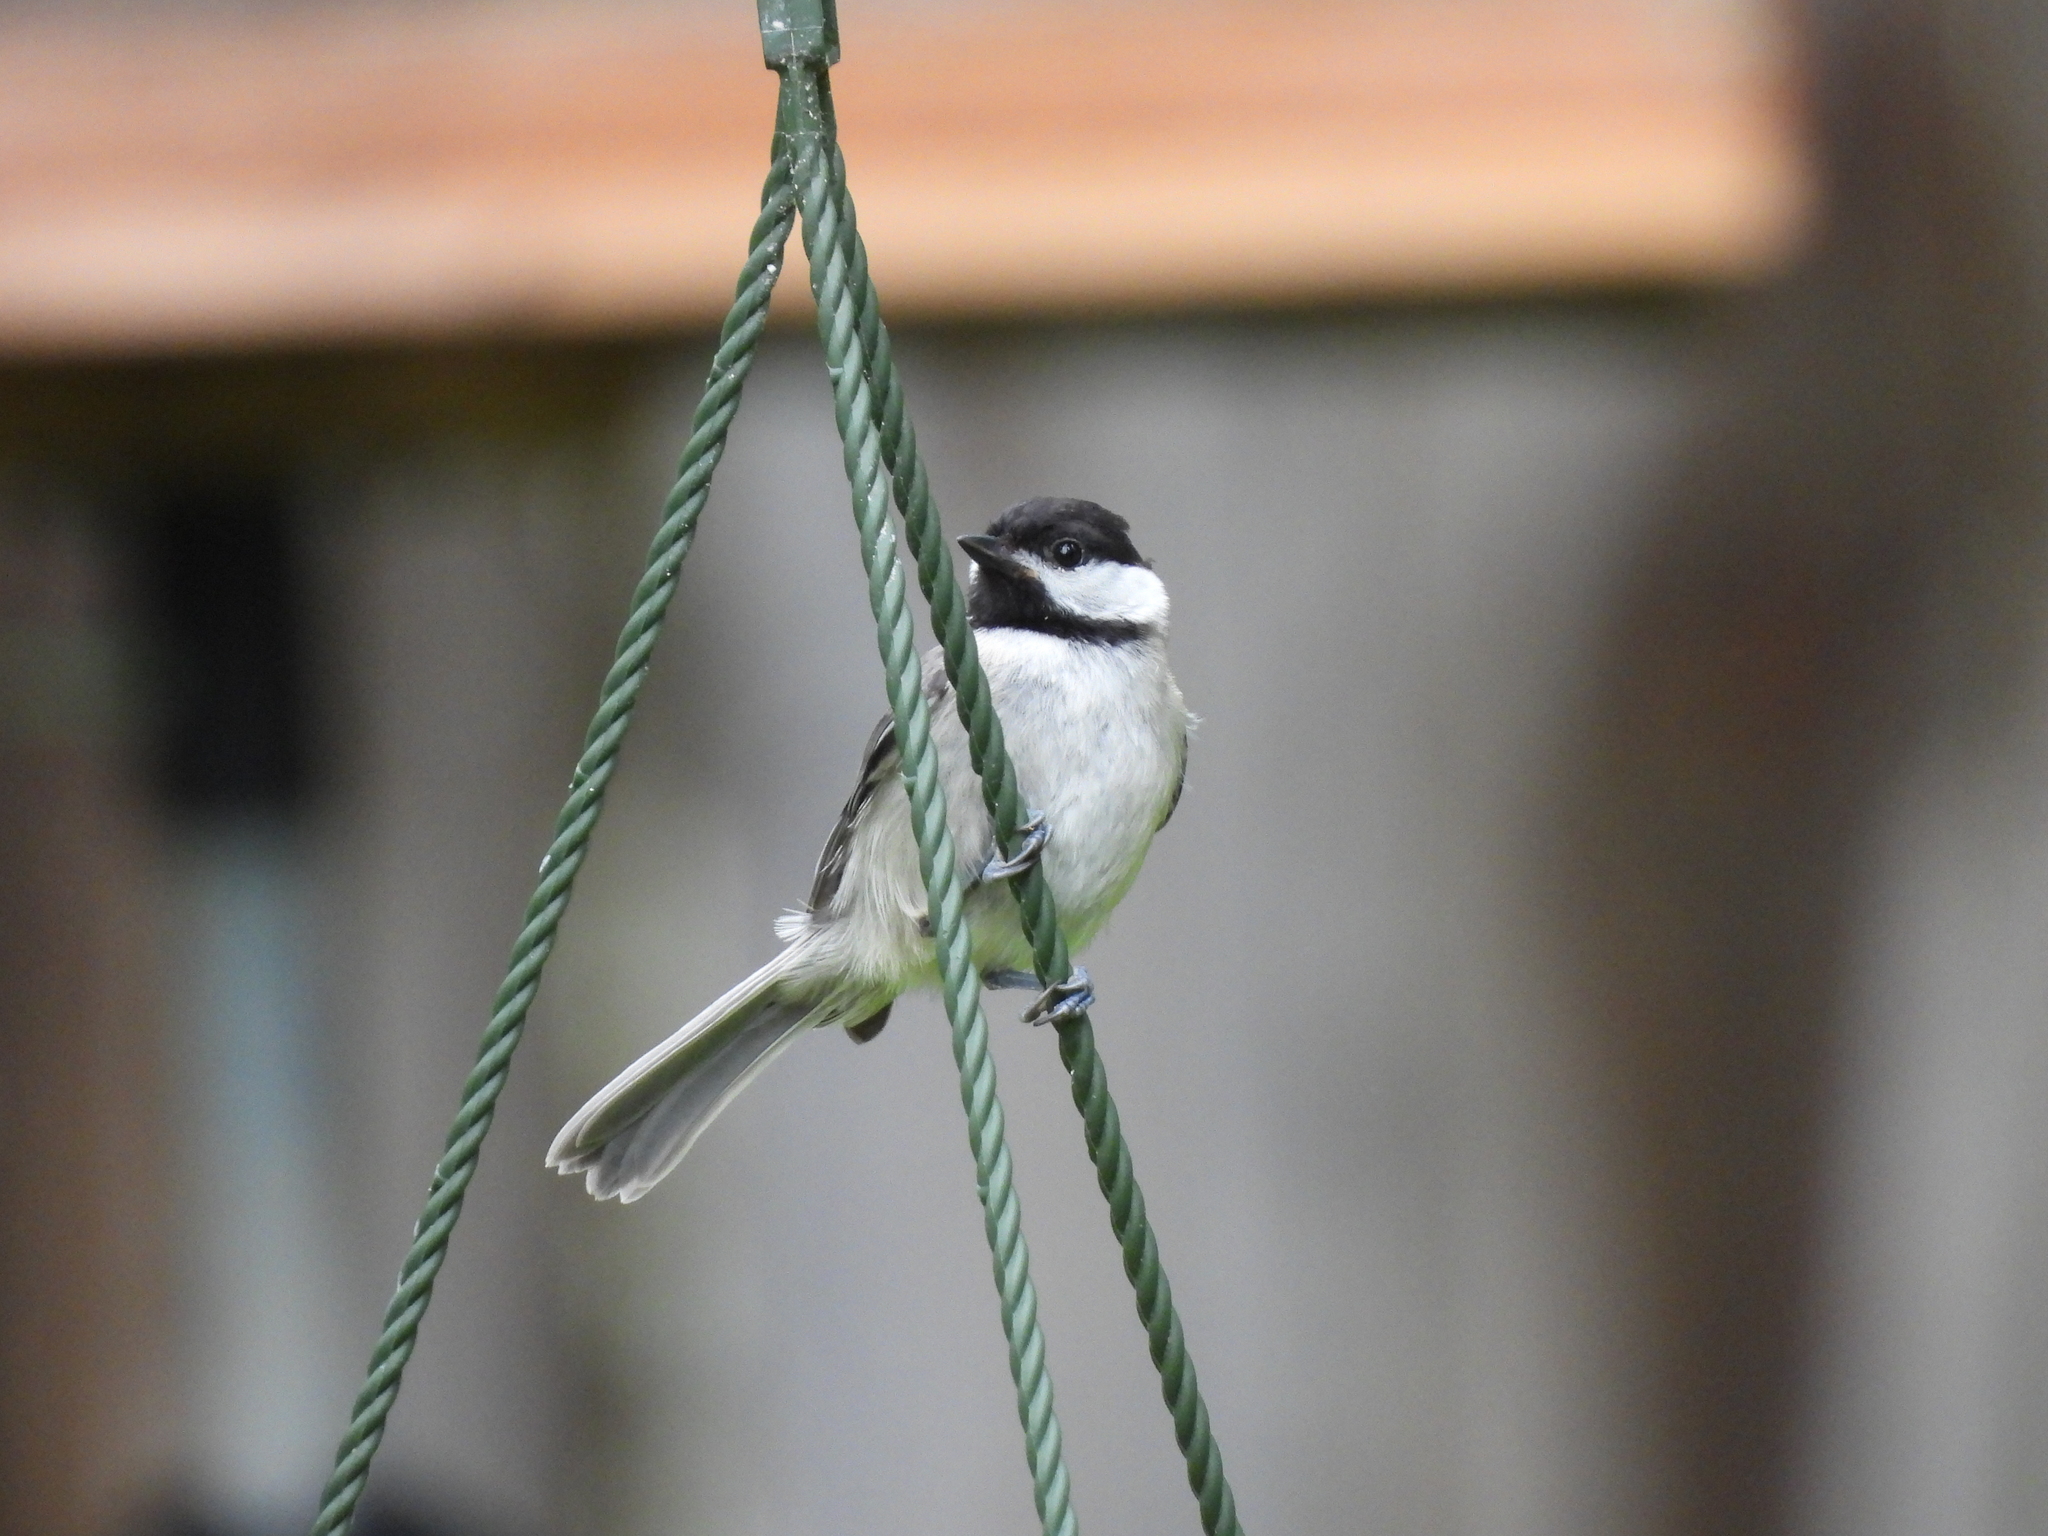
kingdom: Animalia
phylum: Chordata
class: Aves
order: Passeriformes
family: Paridae
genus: Poecile
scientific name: Poecile carolinensis
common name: Carolina chickadee
